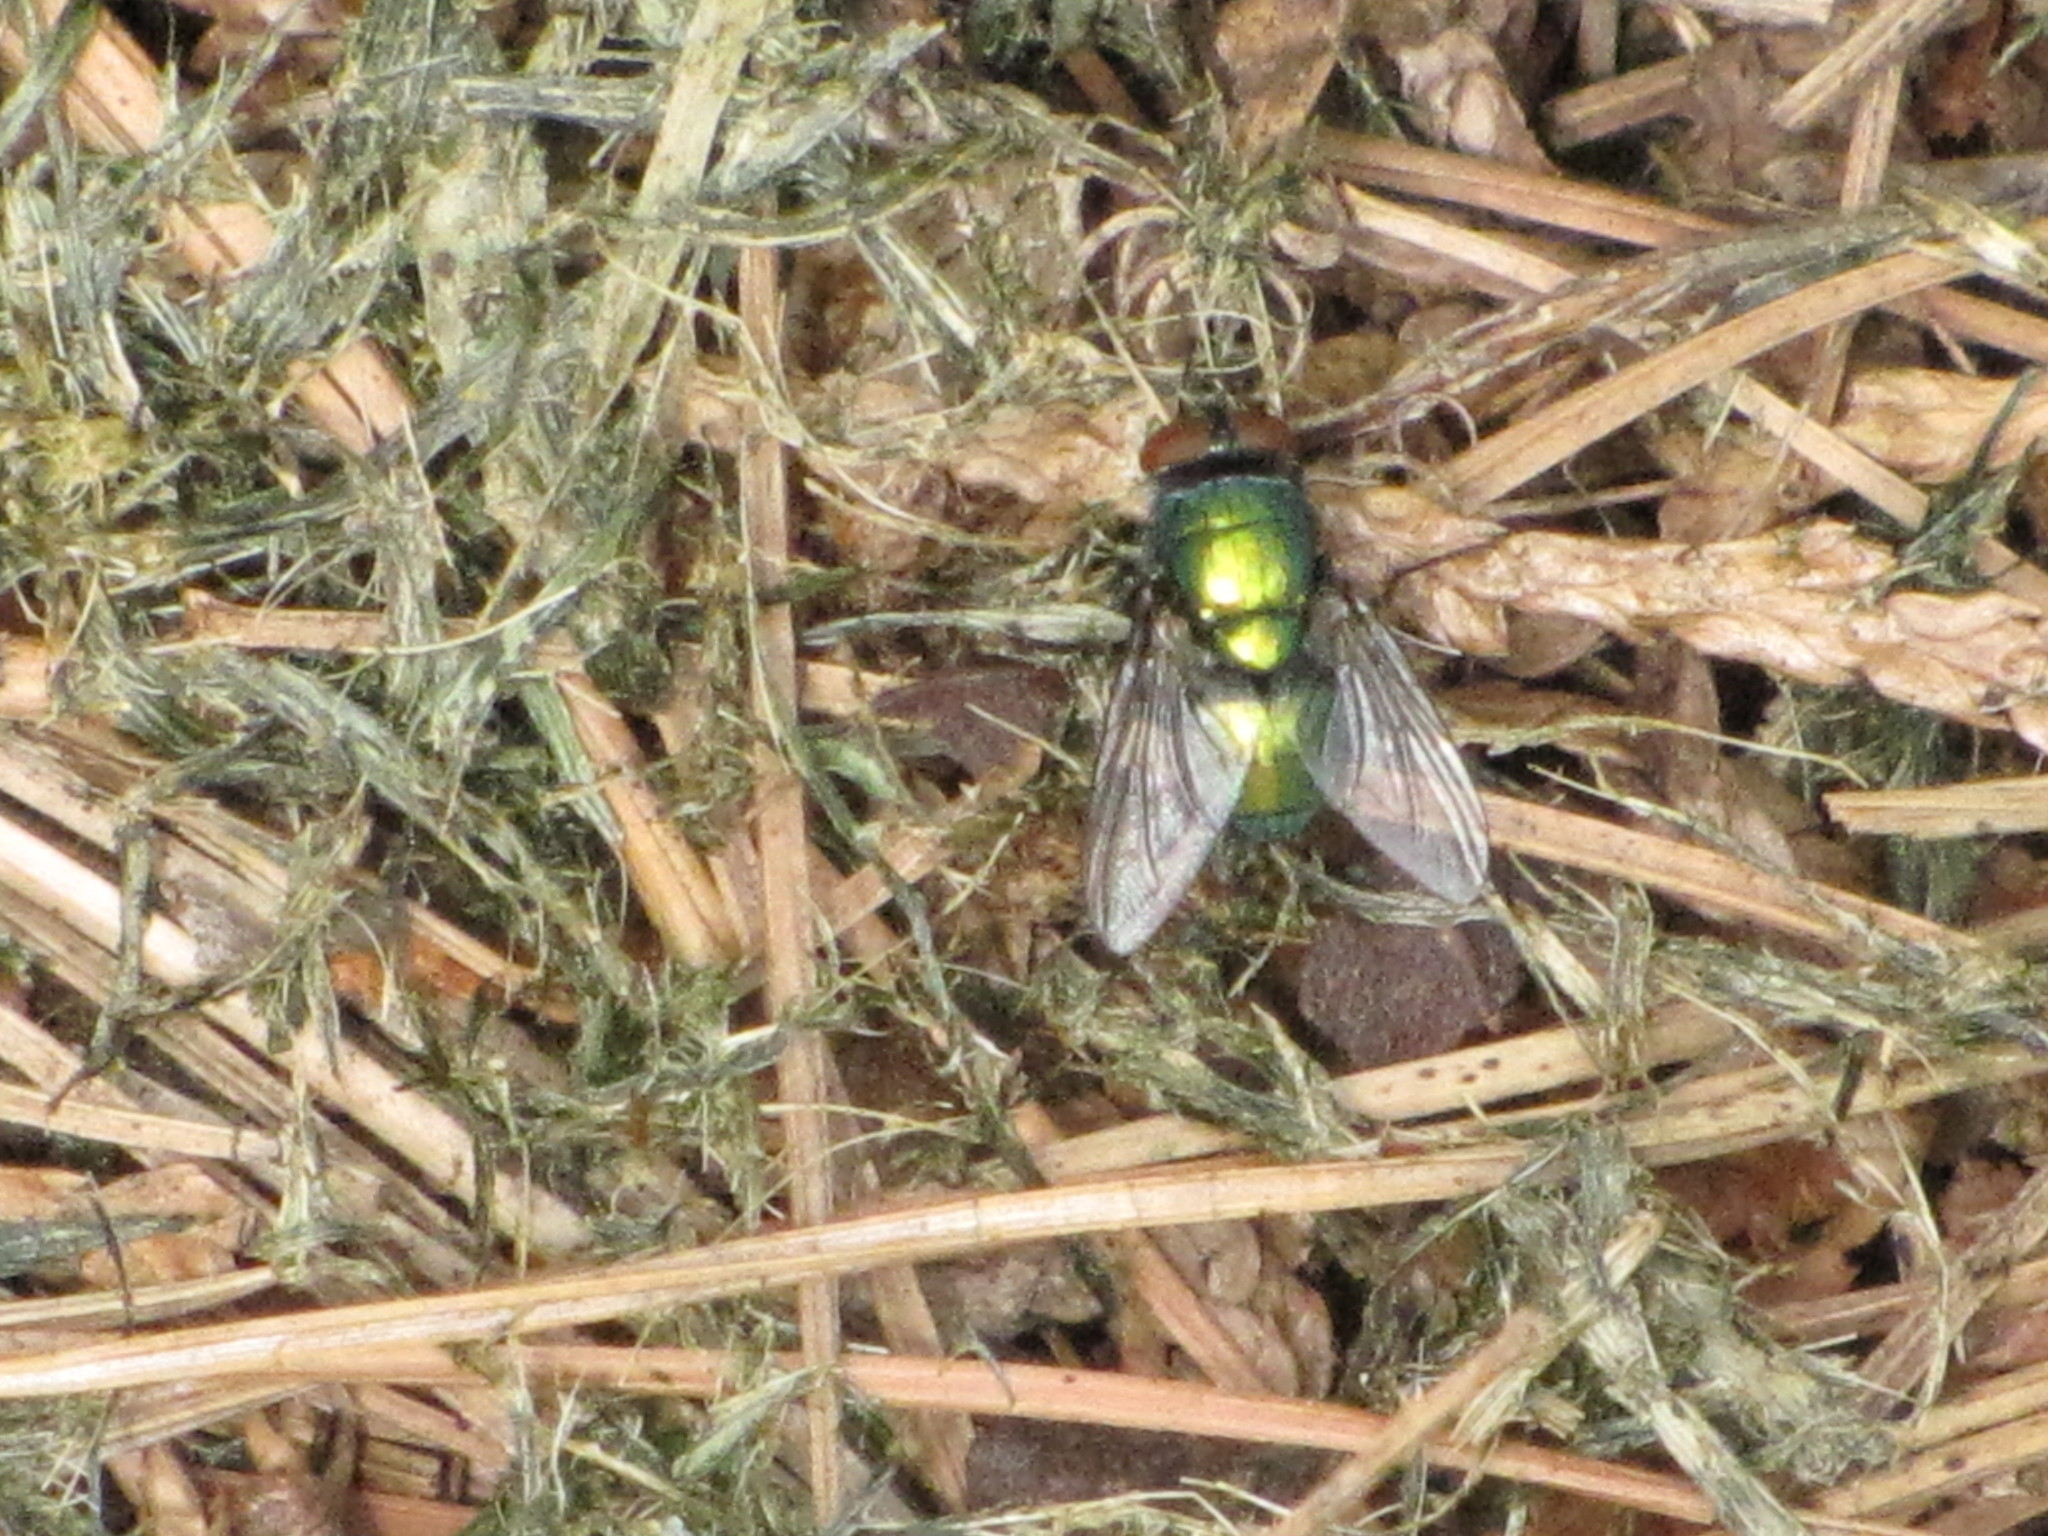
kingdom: Animalia
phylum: Arthropoda
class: Insecta
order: Diptera
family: Calliphoridae
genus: Lucilia
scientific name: Lucilia sericata
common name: Blow fly
